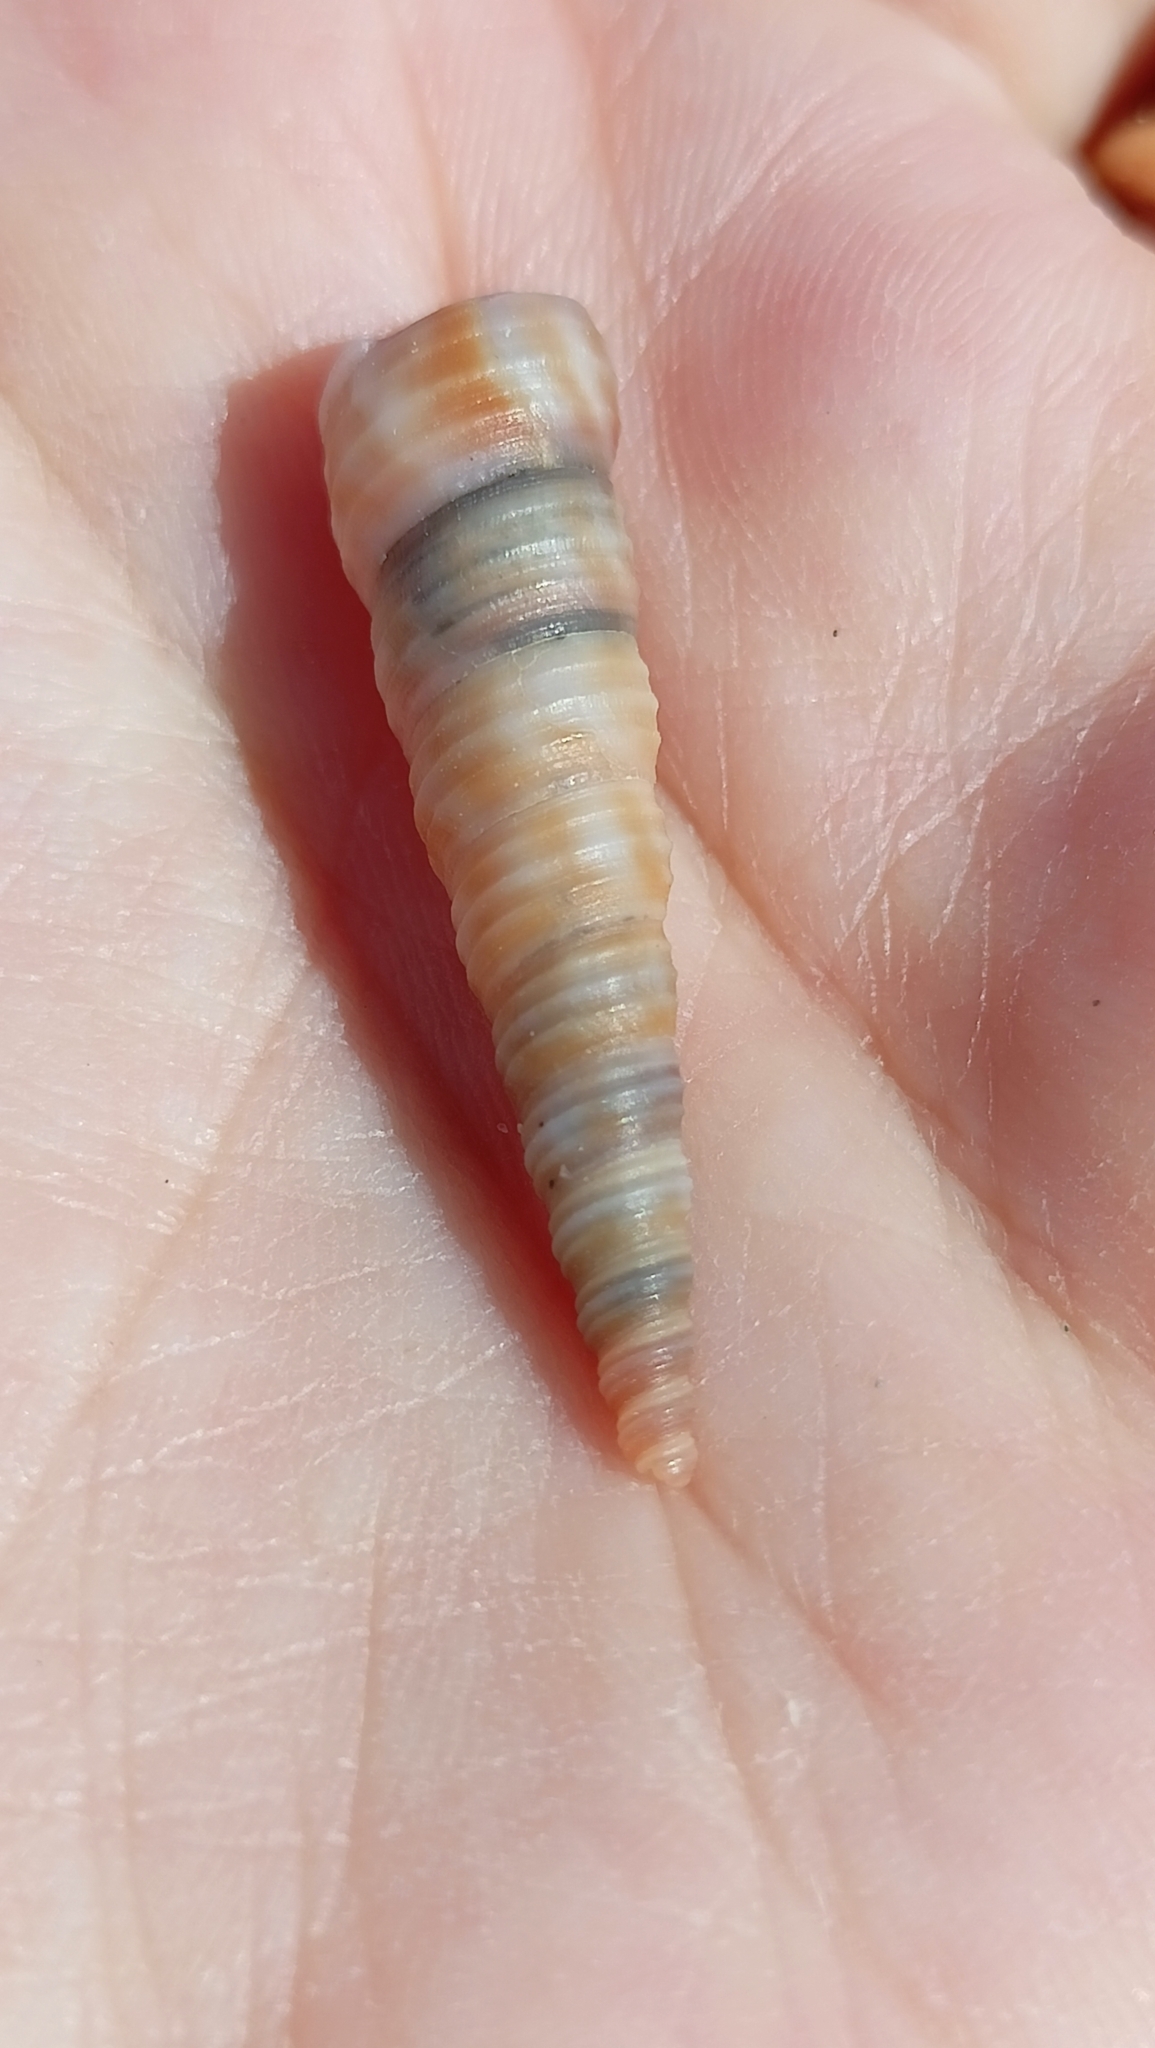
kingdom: Animalia
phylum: Mollusca
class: Gastropoda
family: Turritellidae
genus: Turritellinella
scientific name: Turritellinella tricarinata
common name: Auger shell
